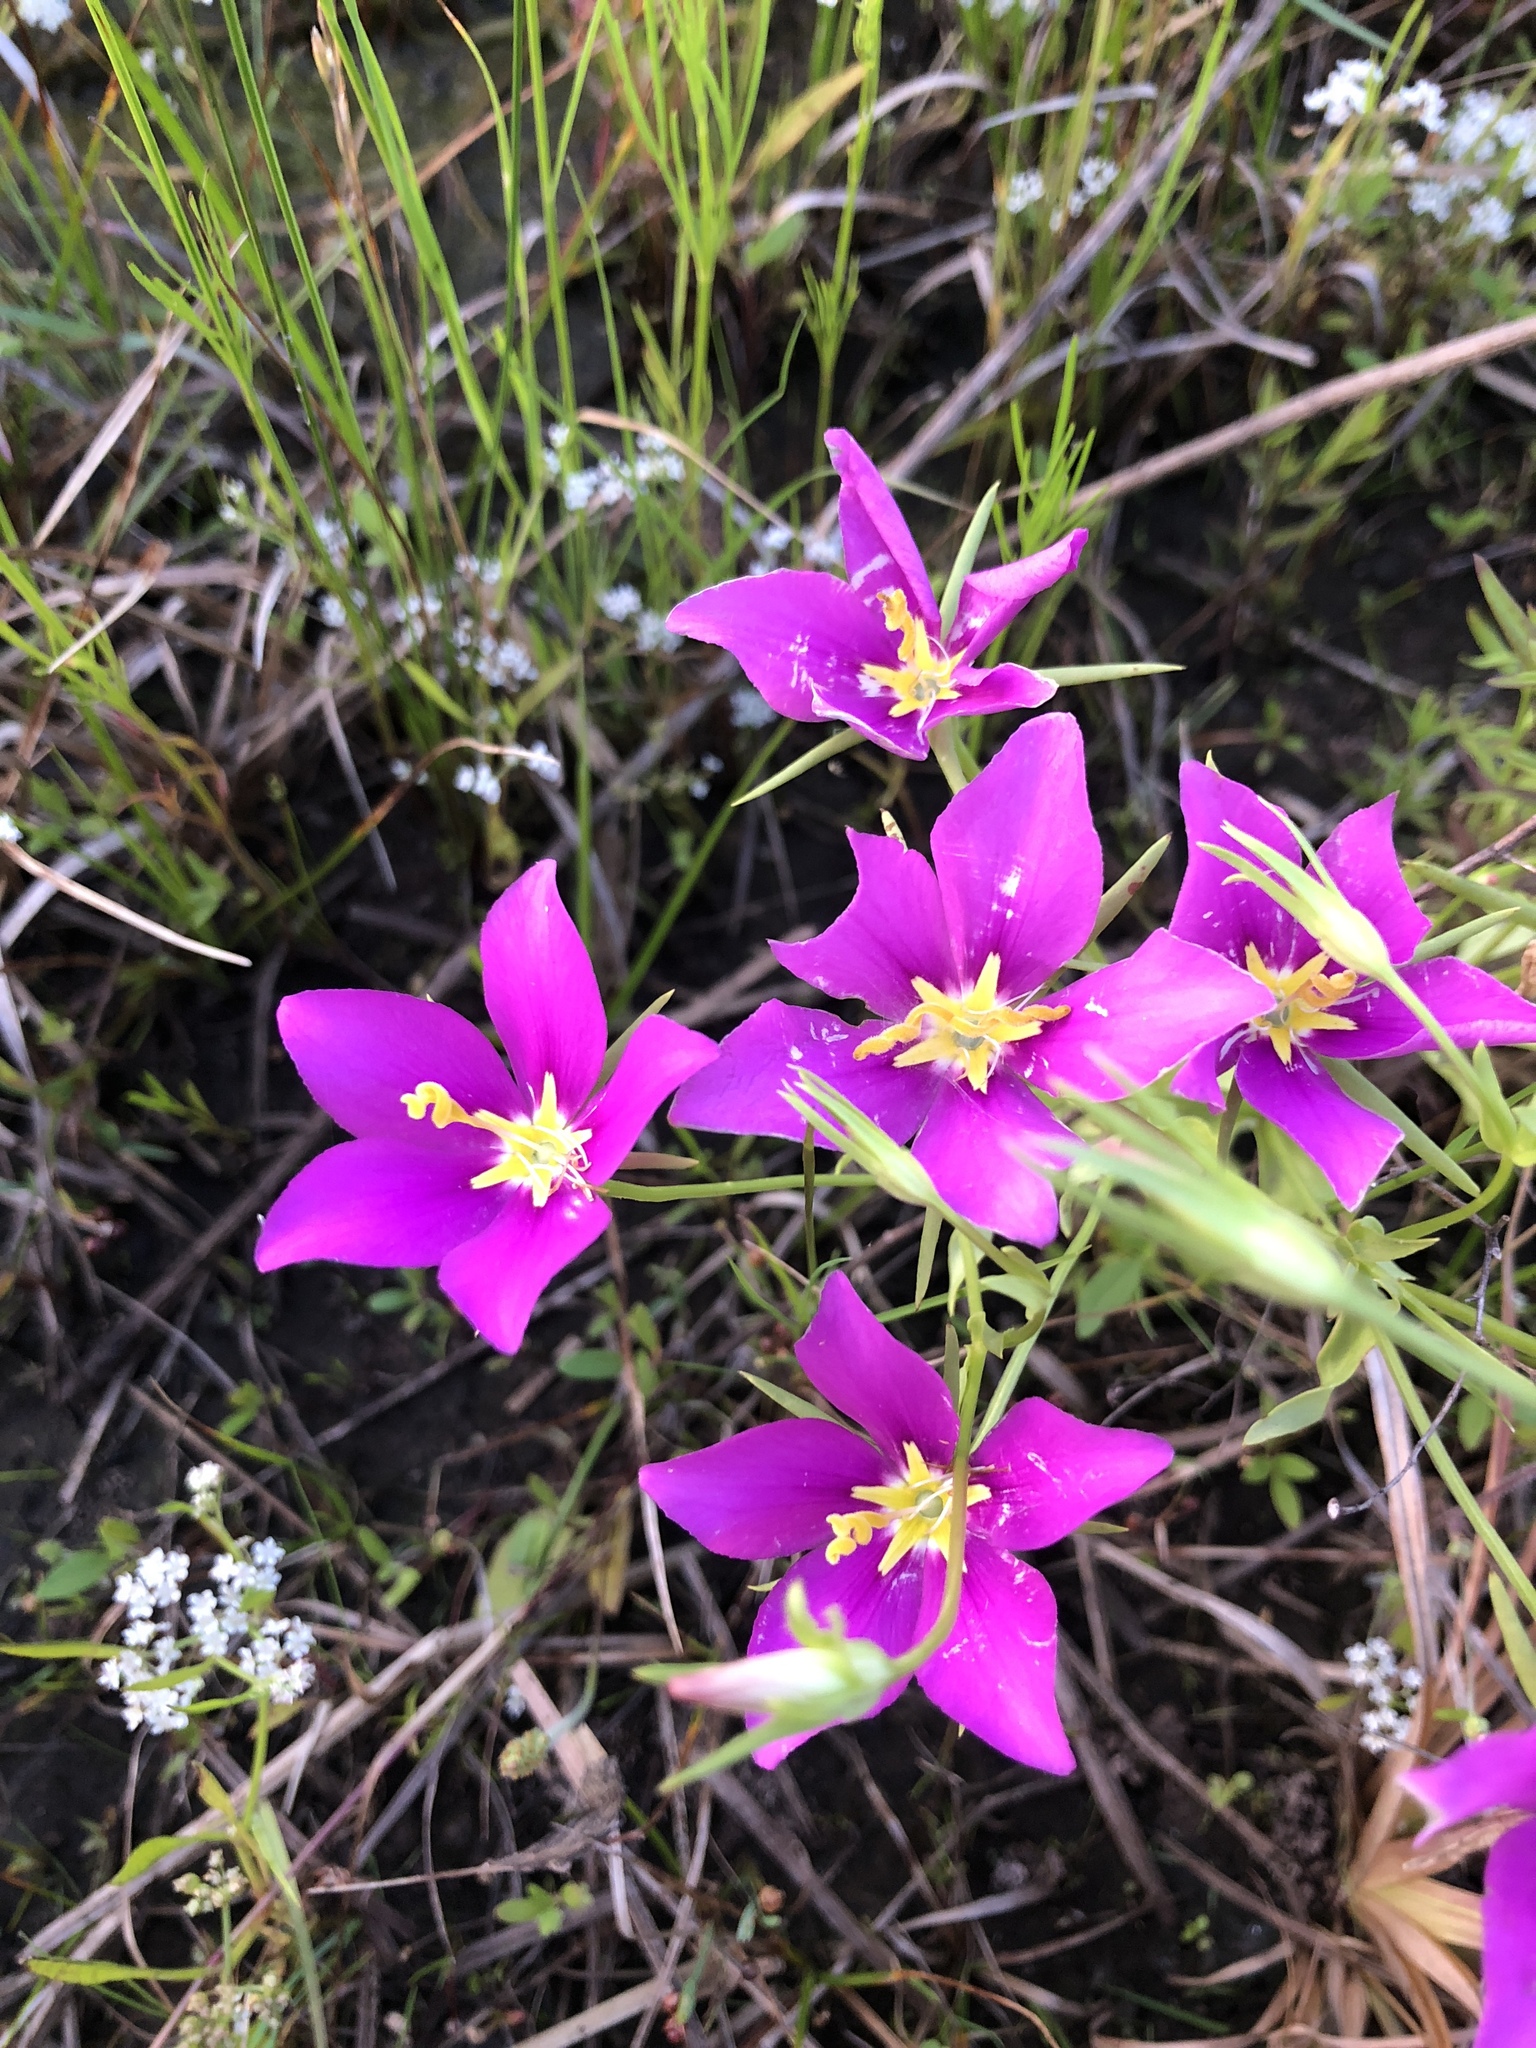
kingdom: Plantae
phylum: Tracheophyta
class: Magnoliopsida
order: Gentianales
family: Gentianaceae
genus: Sabatia
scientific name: Sabatia campestris
